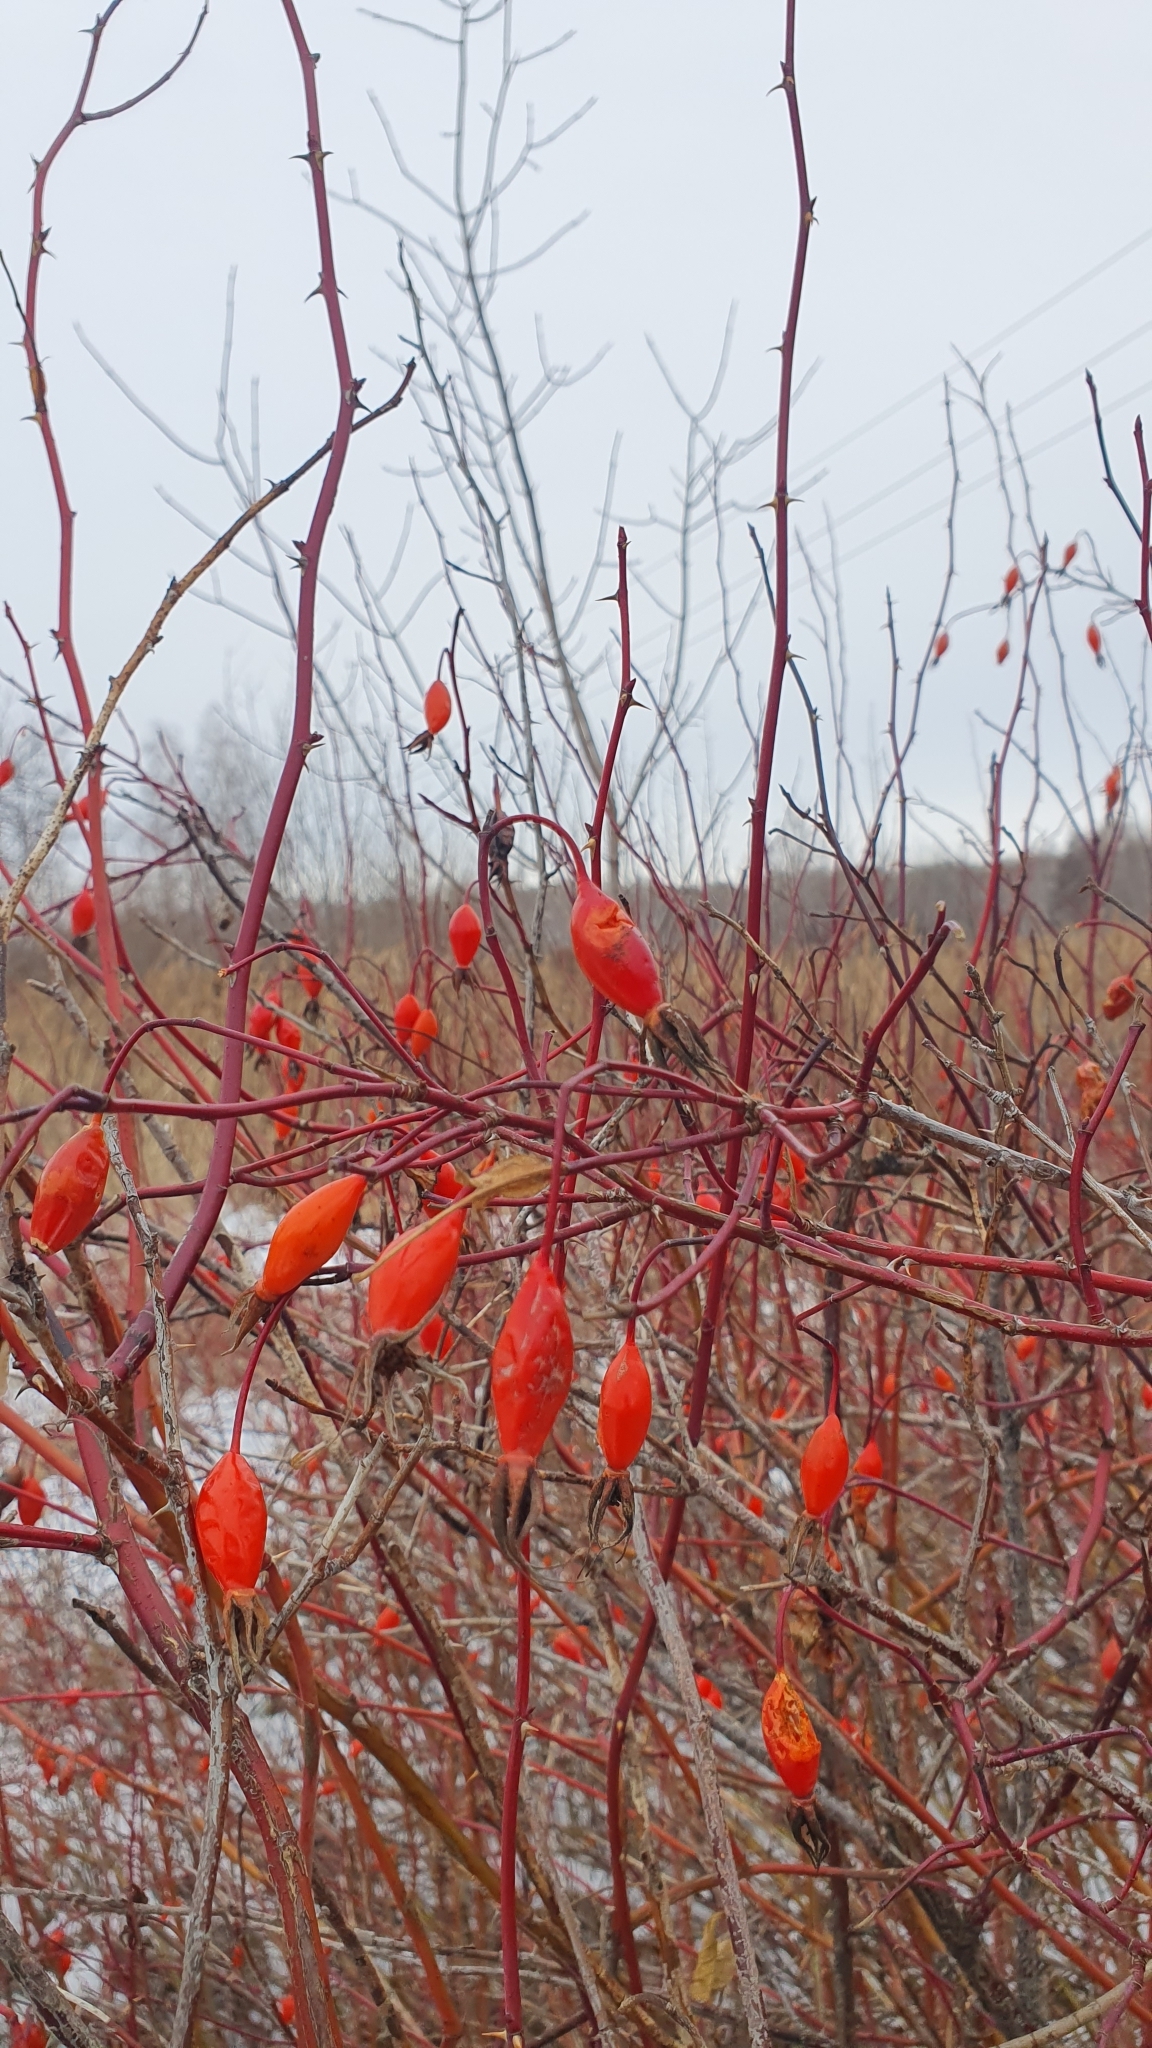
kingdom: Plantae
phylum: Tracheophyta
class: Magnoliopsida
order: Rosales
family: Rosaceae
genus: Rosa
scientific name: Rosa majalis
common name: Cinnamon rose
